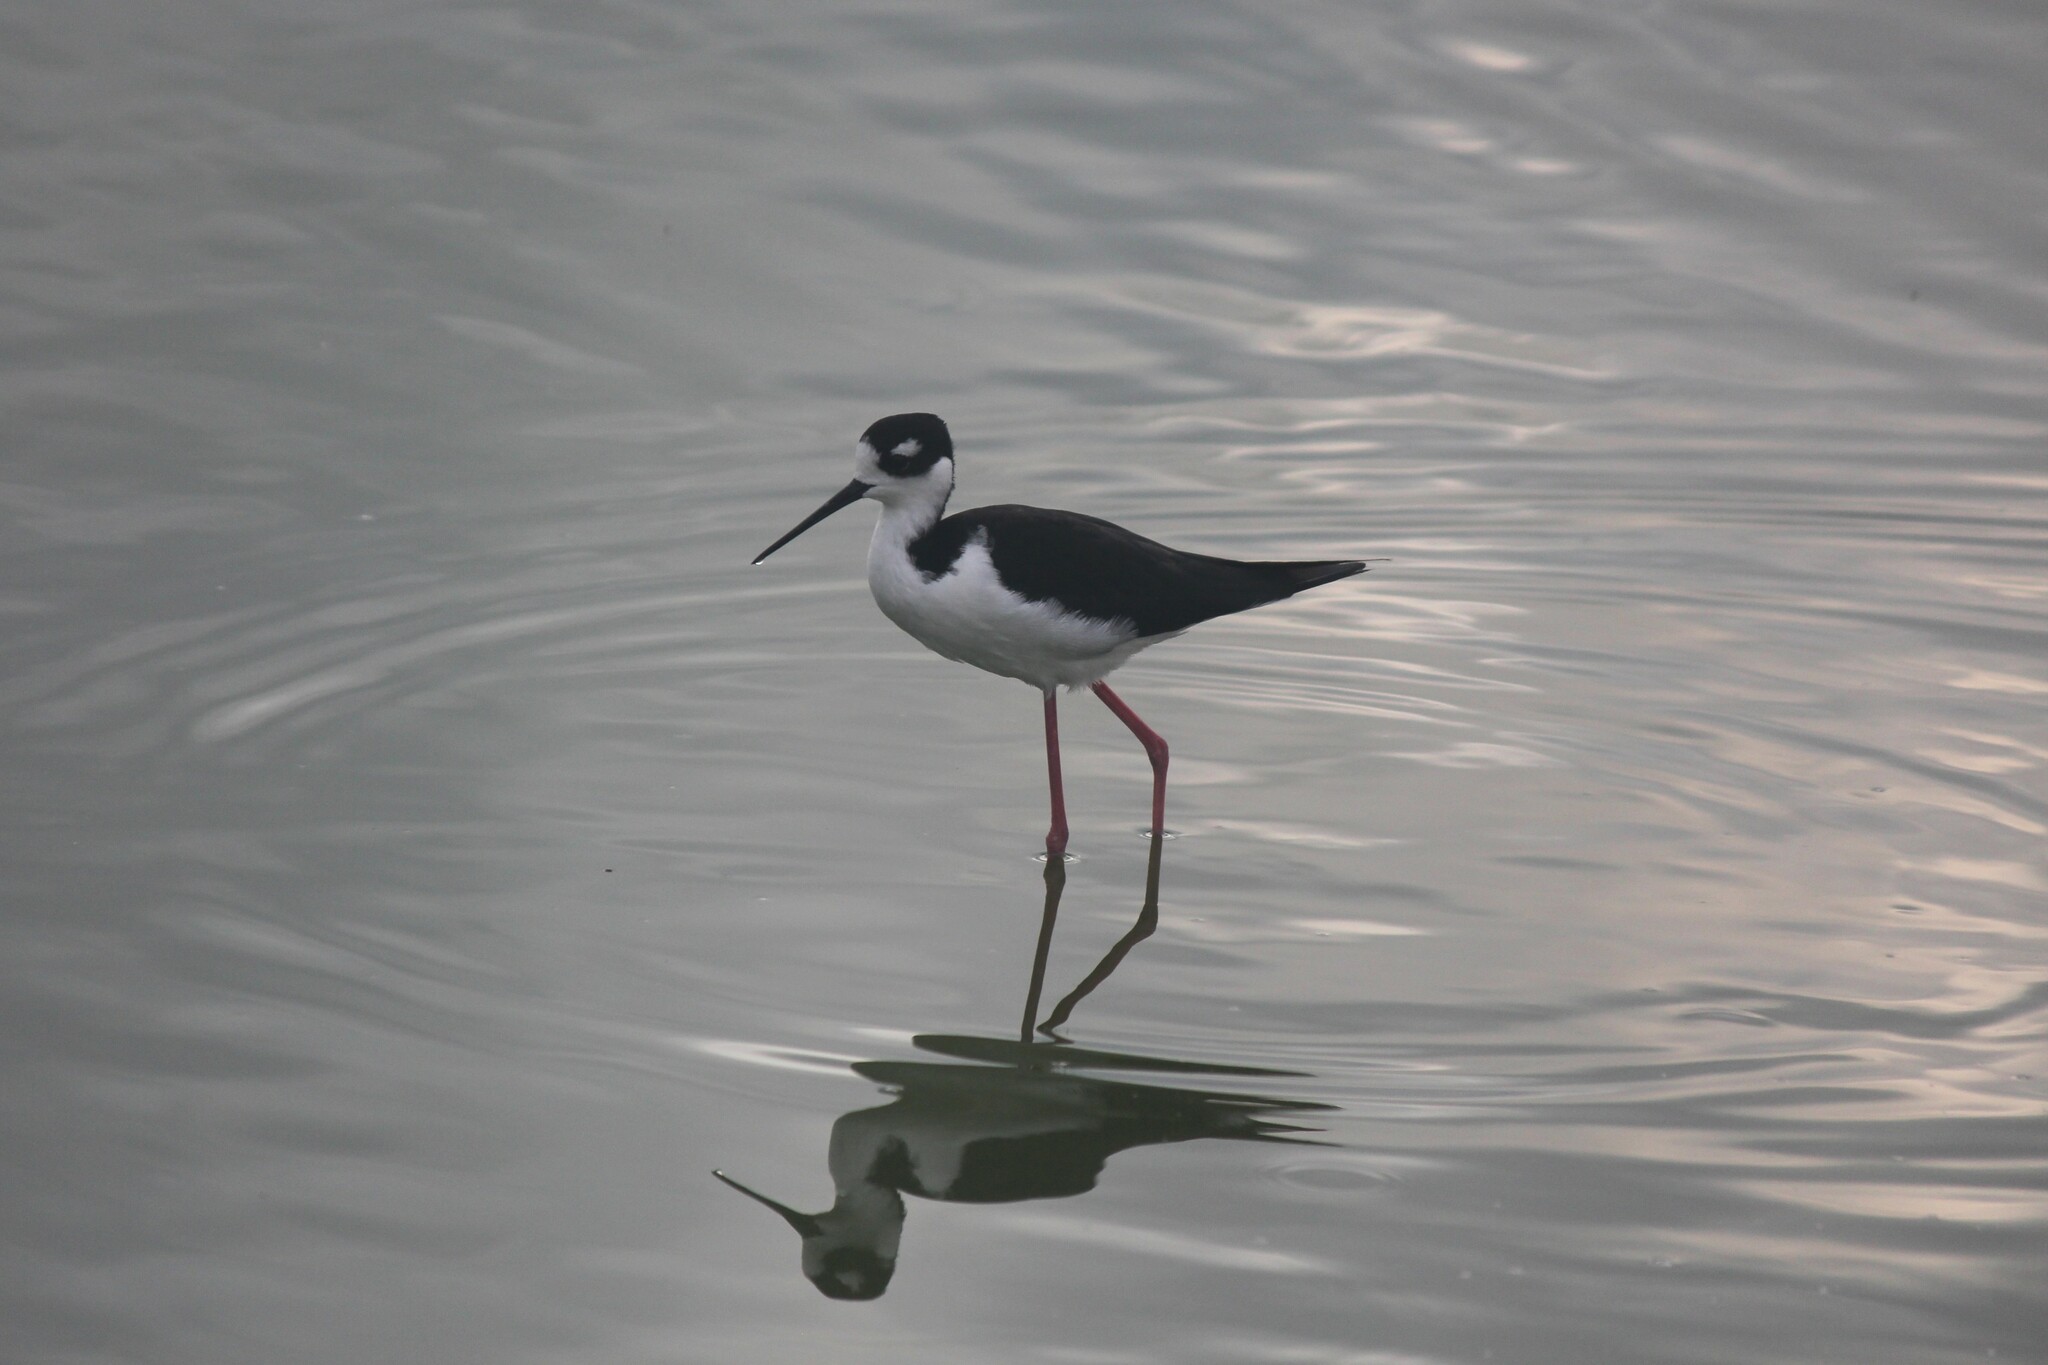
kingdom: Animalia
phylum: Chordata
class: Aves
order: Charadriiformes
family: Recurvirostridae
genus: Himantopus
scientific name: Himantopus mexicanus
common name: Black-necked stilt
